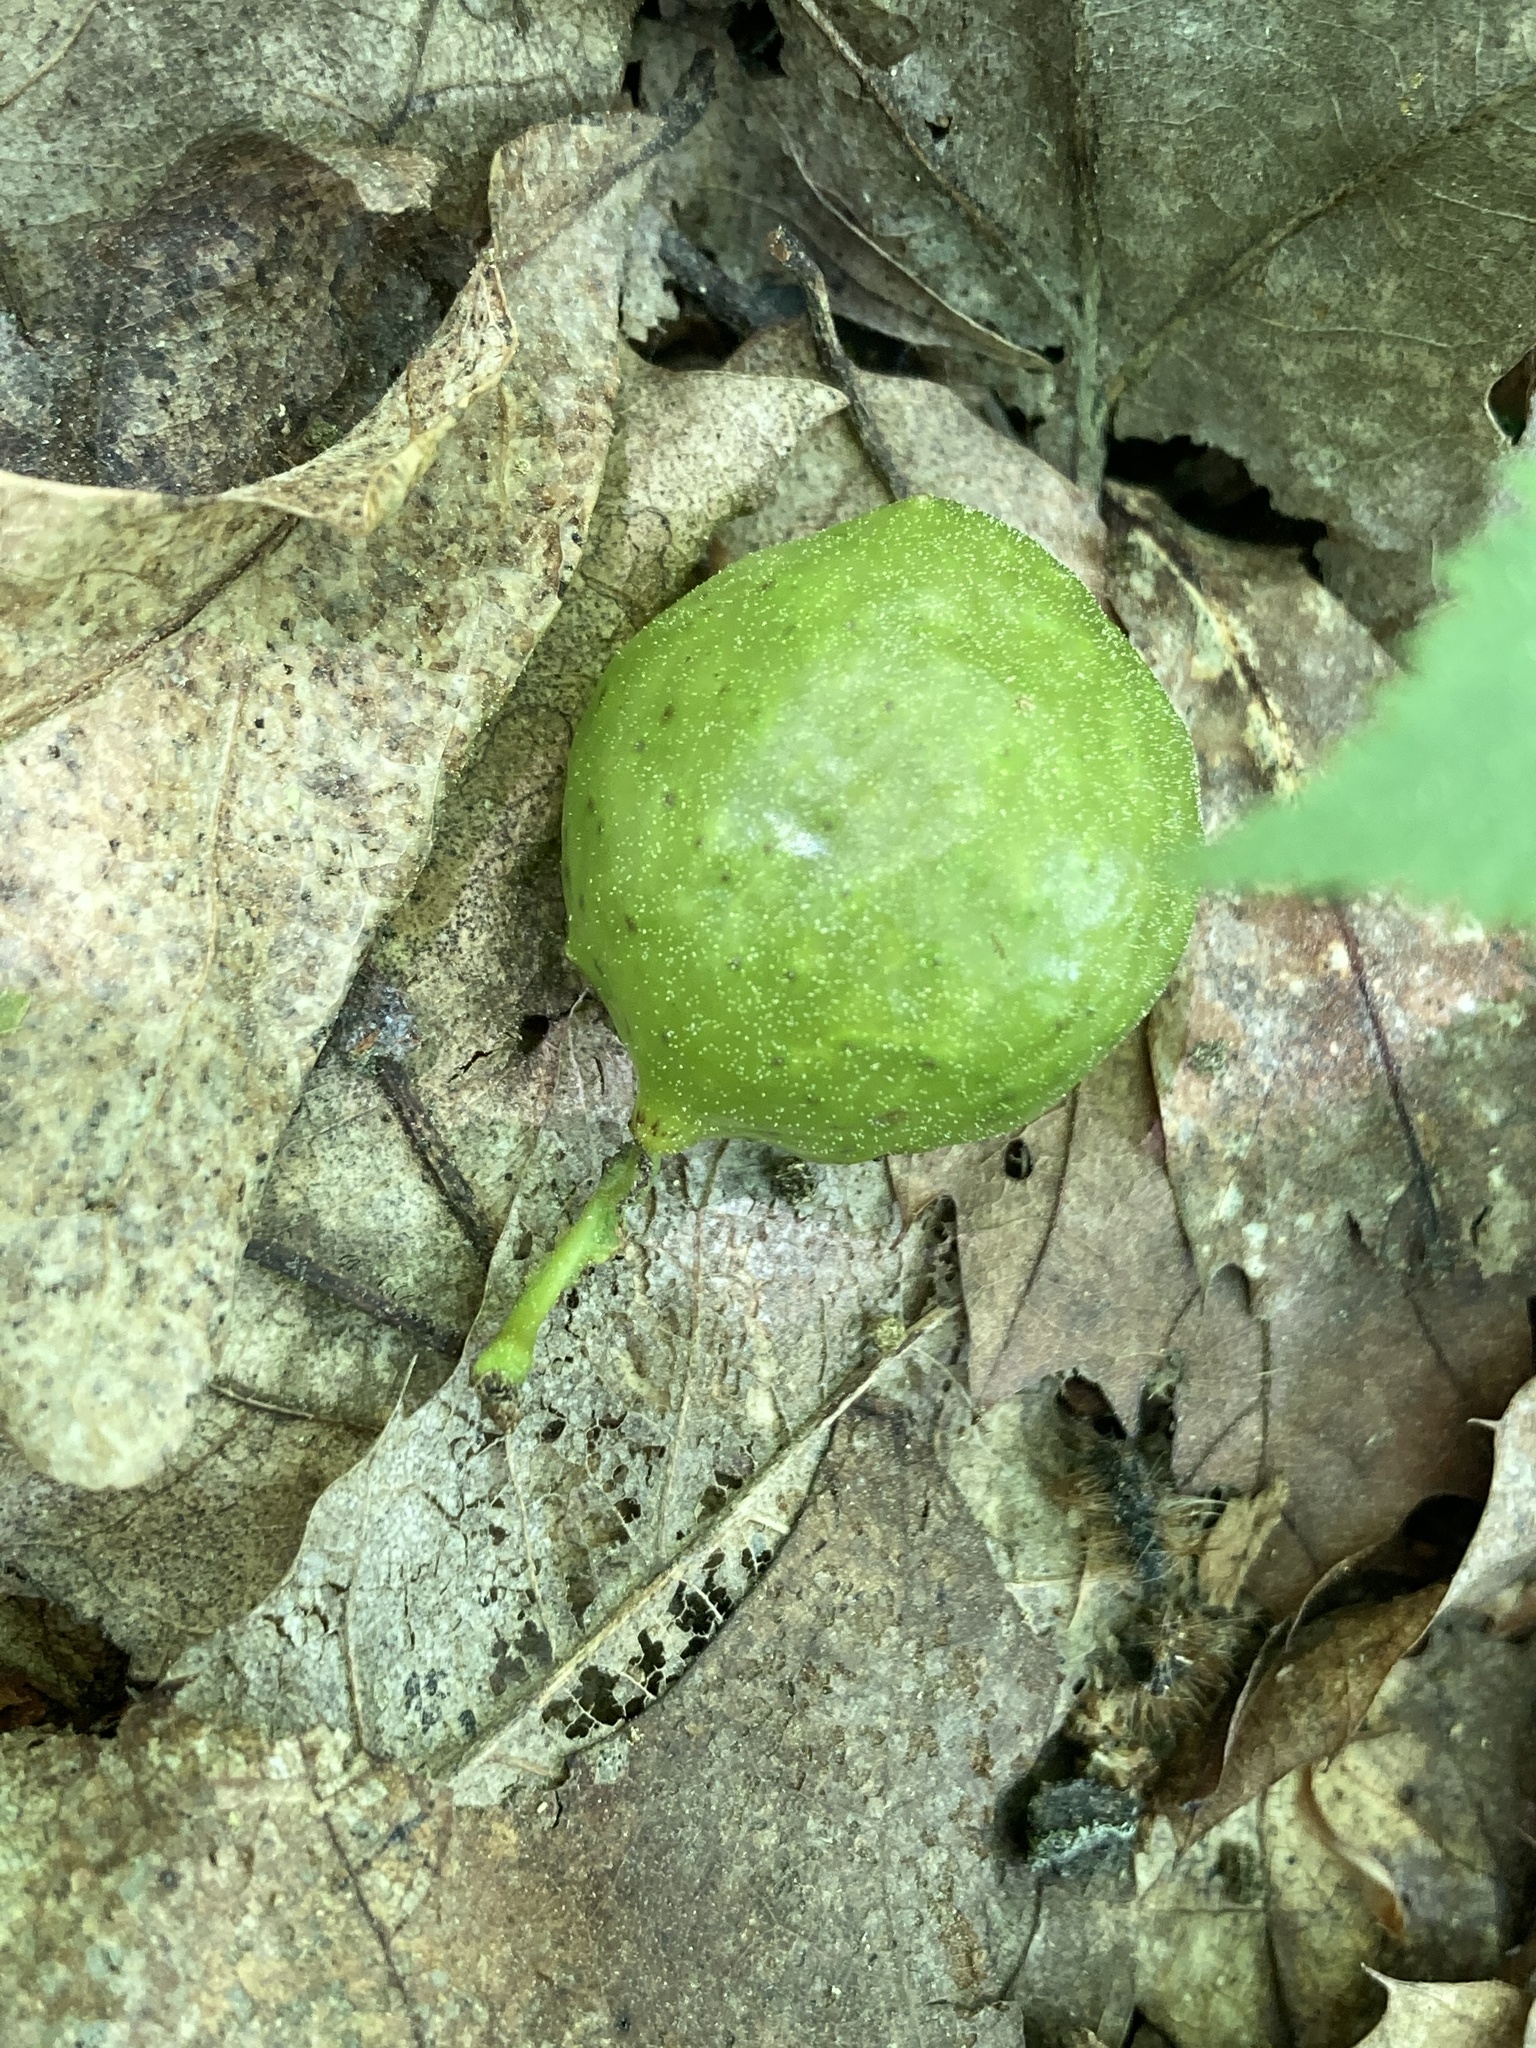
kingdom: Animalia
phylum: Arthropoda
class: Insecta
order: Hymenoptera
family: Cynipidae
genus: Amphibolips
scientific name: Amphibolips
